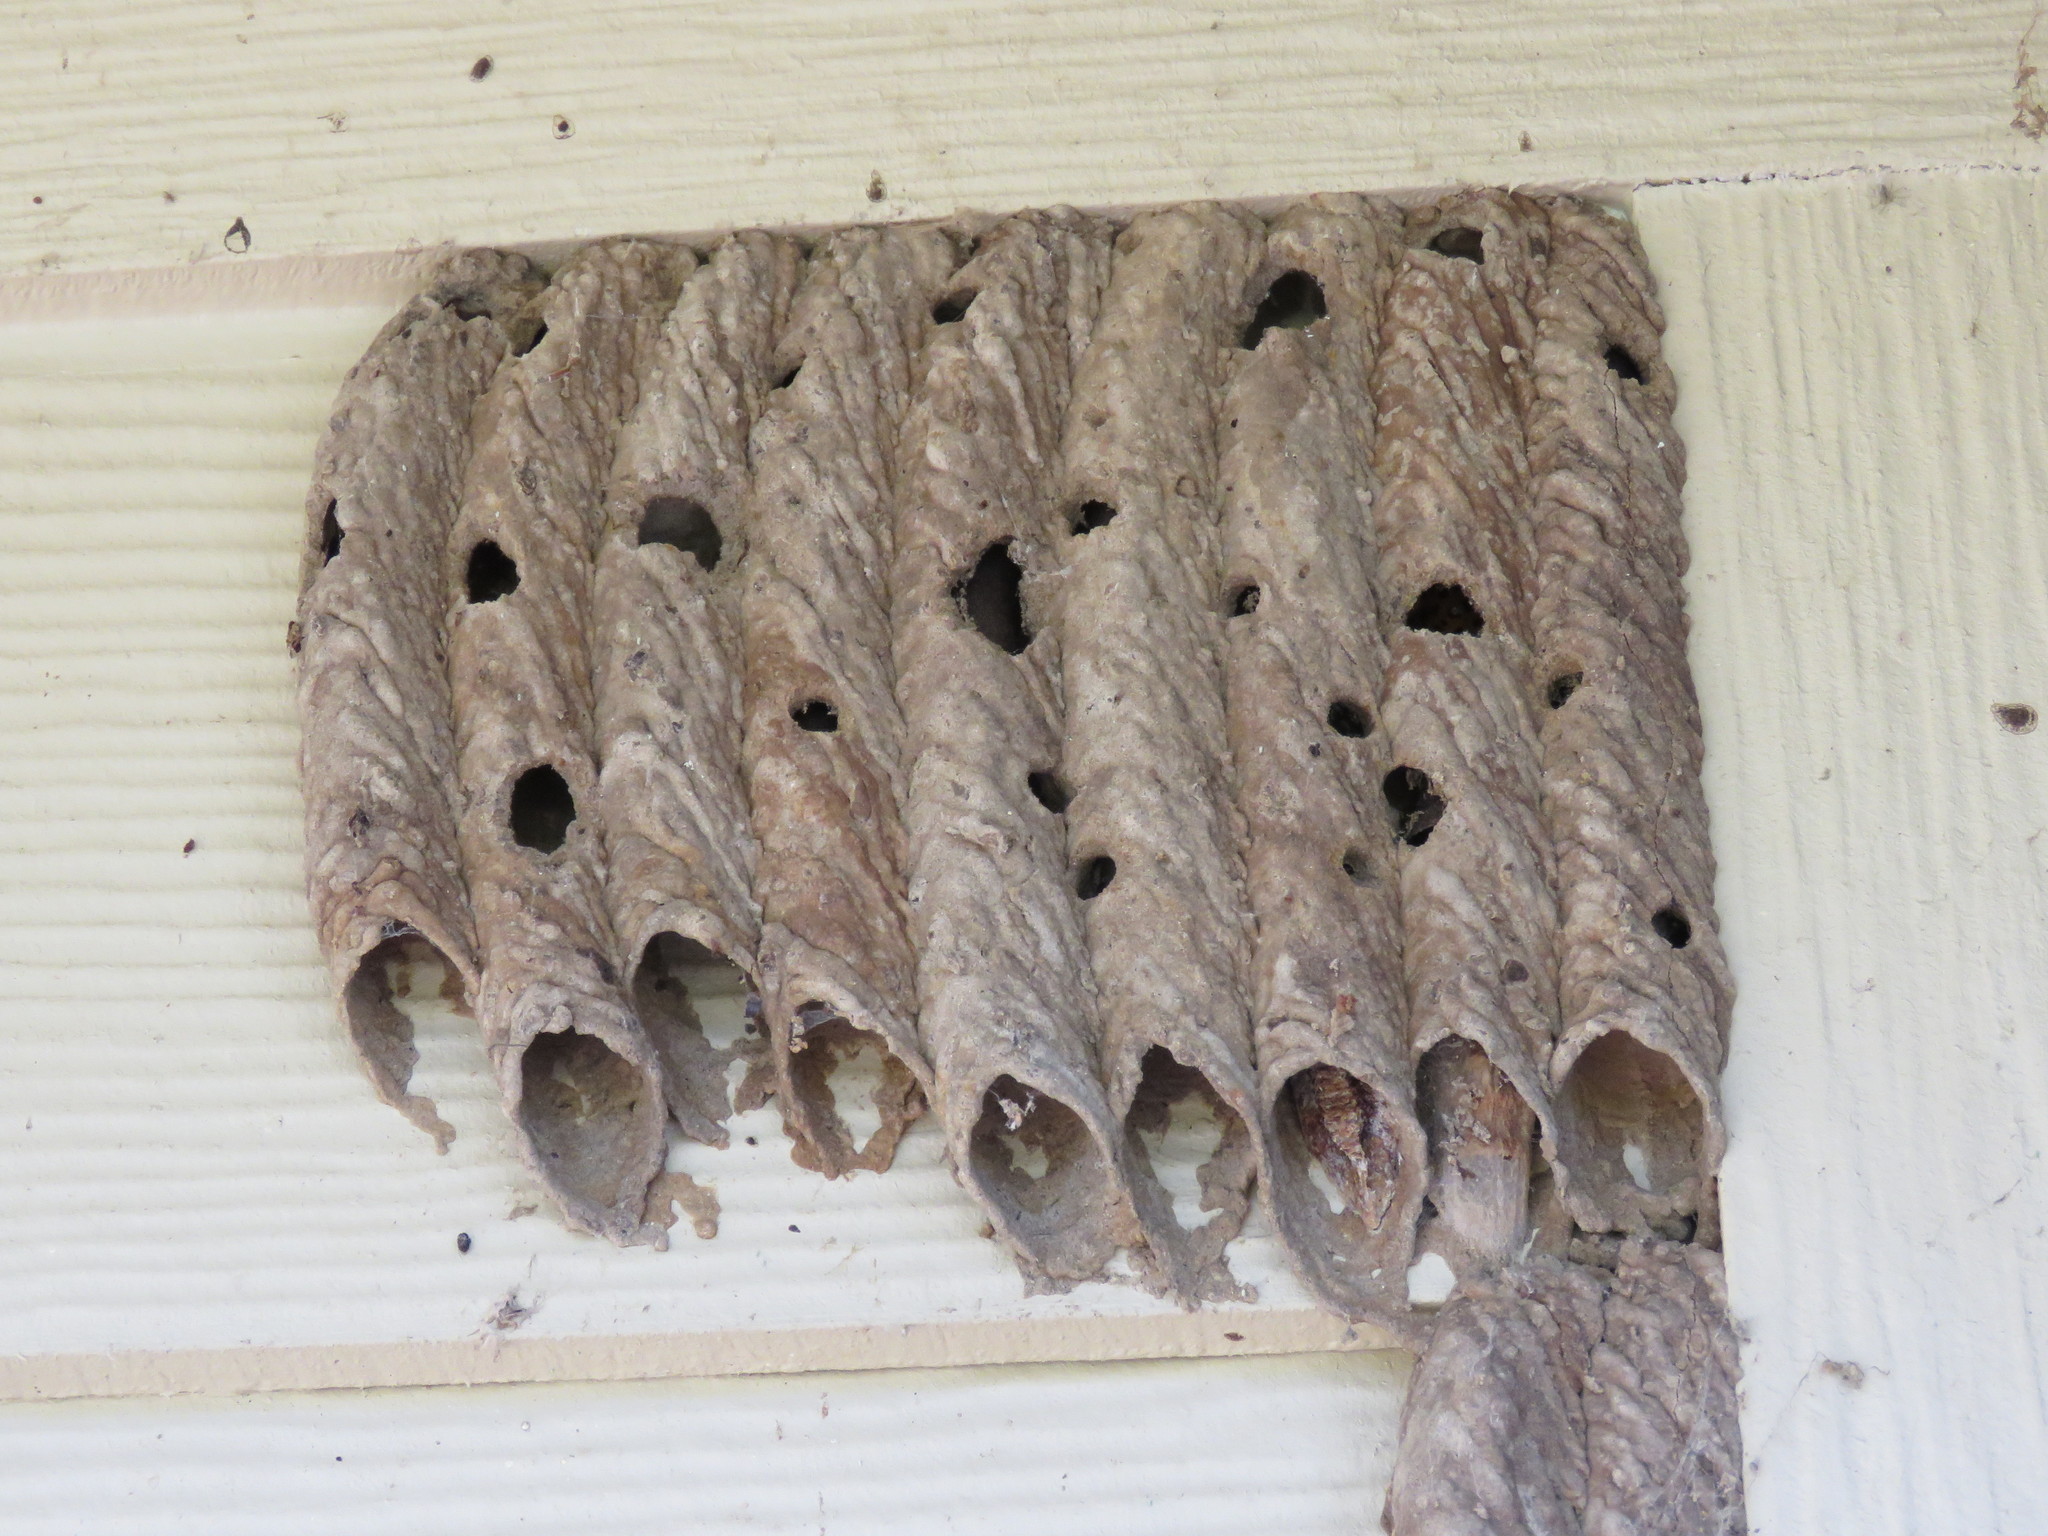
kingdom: Animalia
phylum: Arthropoda
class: Insecta
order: Hymenoptera
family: Crabronidae
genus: Trypoxylon
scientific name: Trypoxylon politum
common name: Organ-pipe mud-dauber wasp
